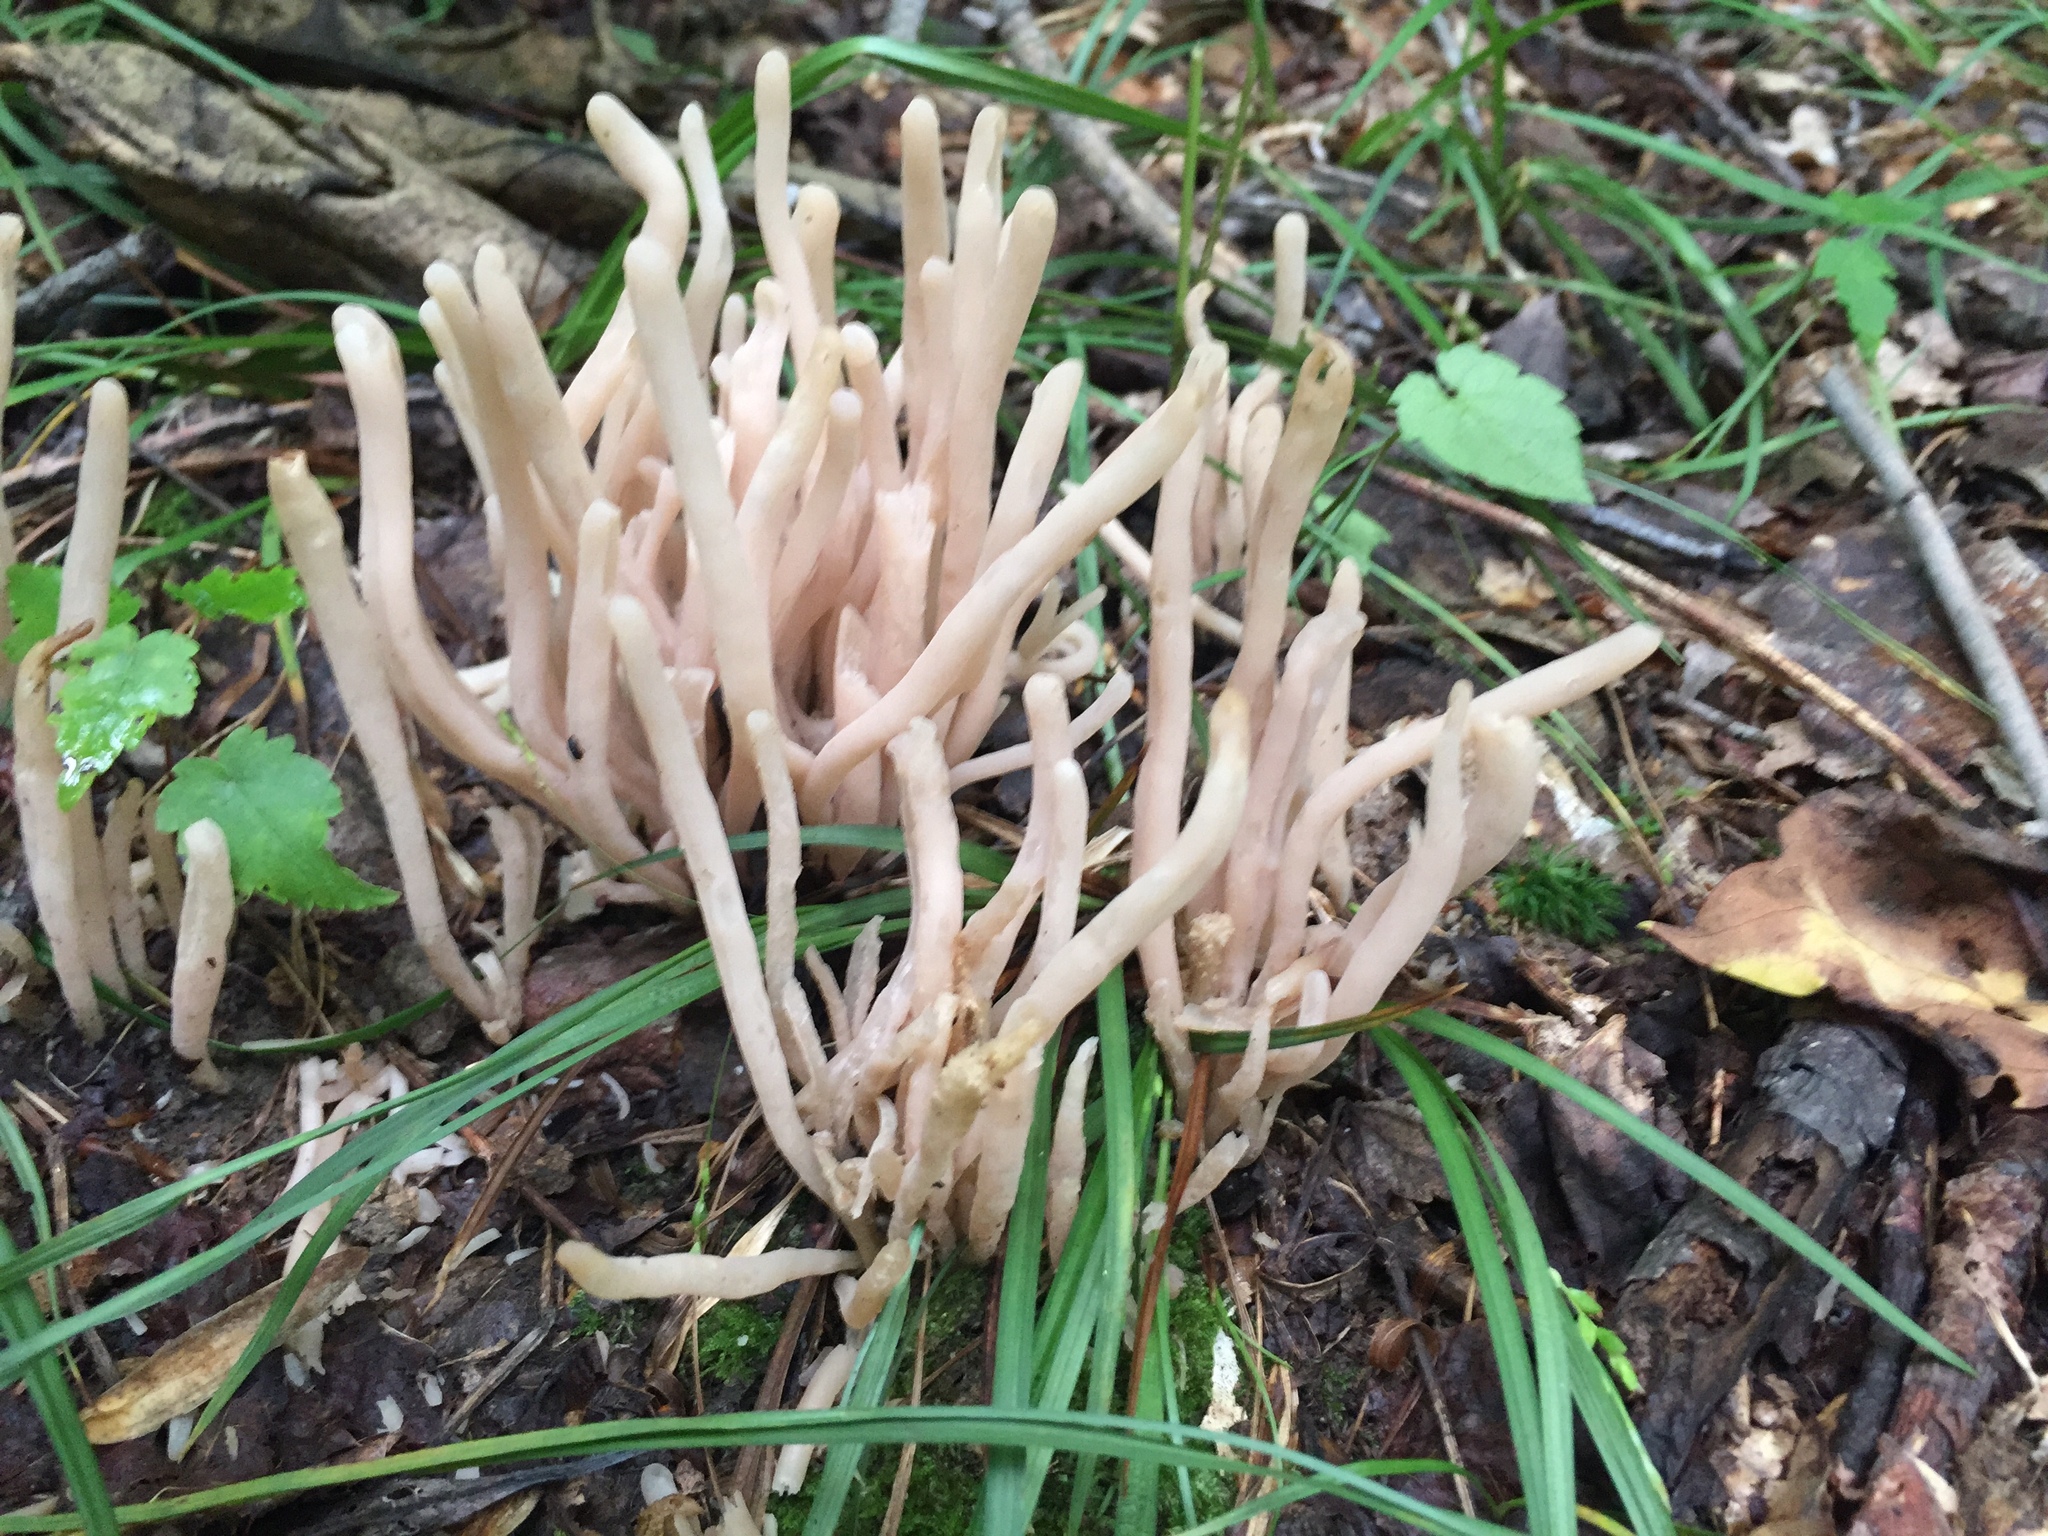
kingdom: Fungi
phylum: Basidiomycota
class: Agaricomycetes
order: Agaricales
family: Clavariaceae
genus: Clavaria
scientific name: Clavaria fumosa
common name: Smoky spindles
